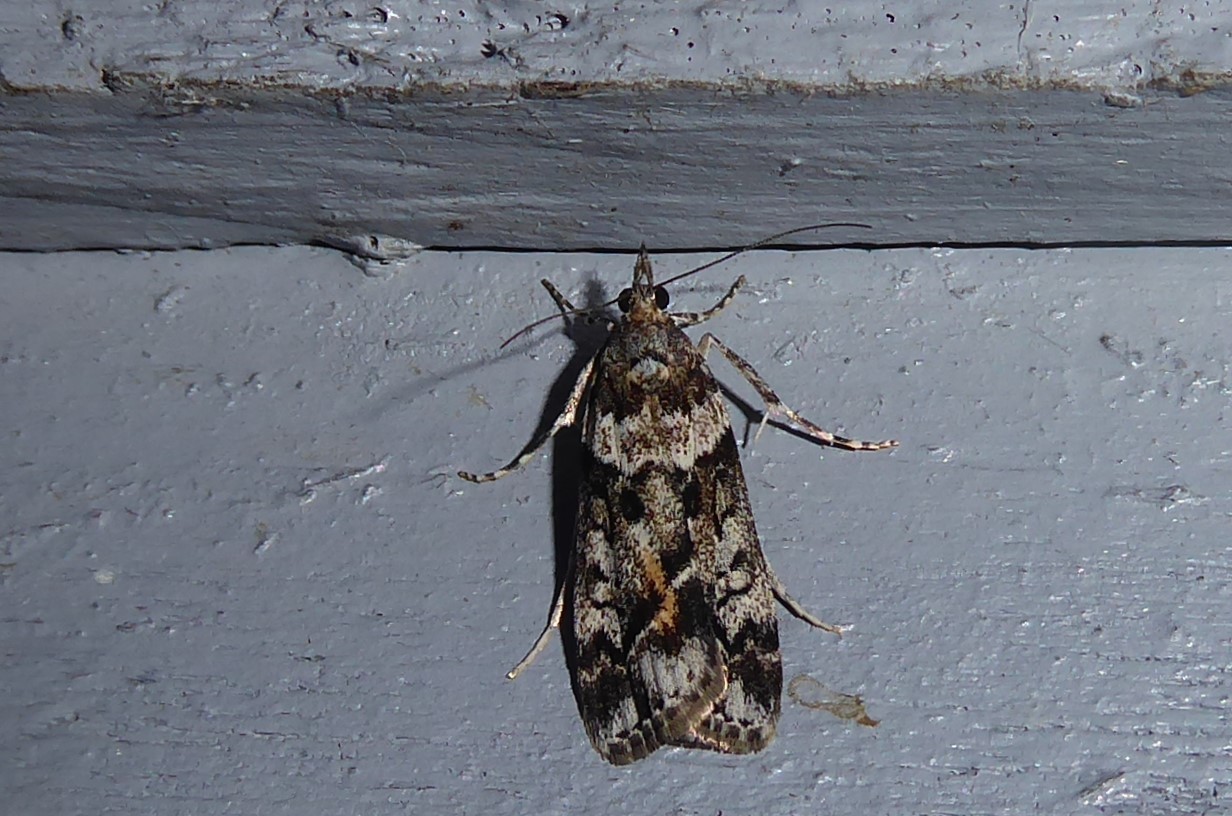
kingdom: Animalia
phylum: Arthropoda
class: Insecta
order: Lepidoptera
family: Crambidae
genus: Eudonia
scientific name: Eudonia submarginalis
